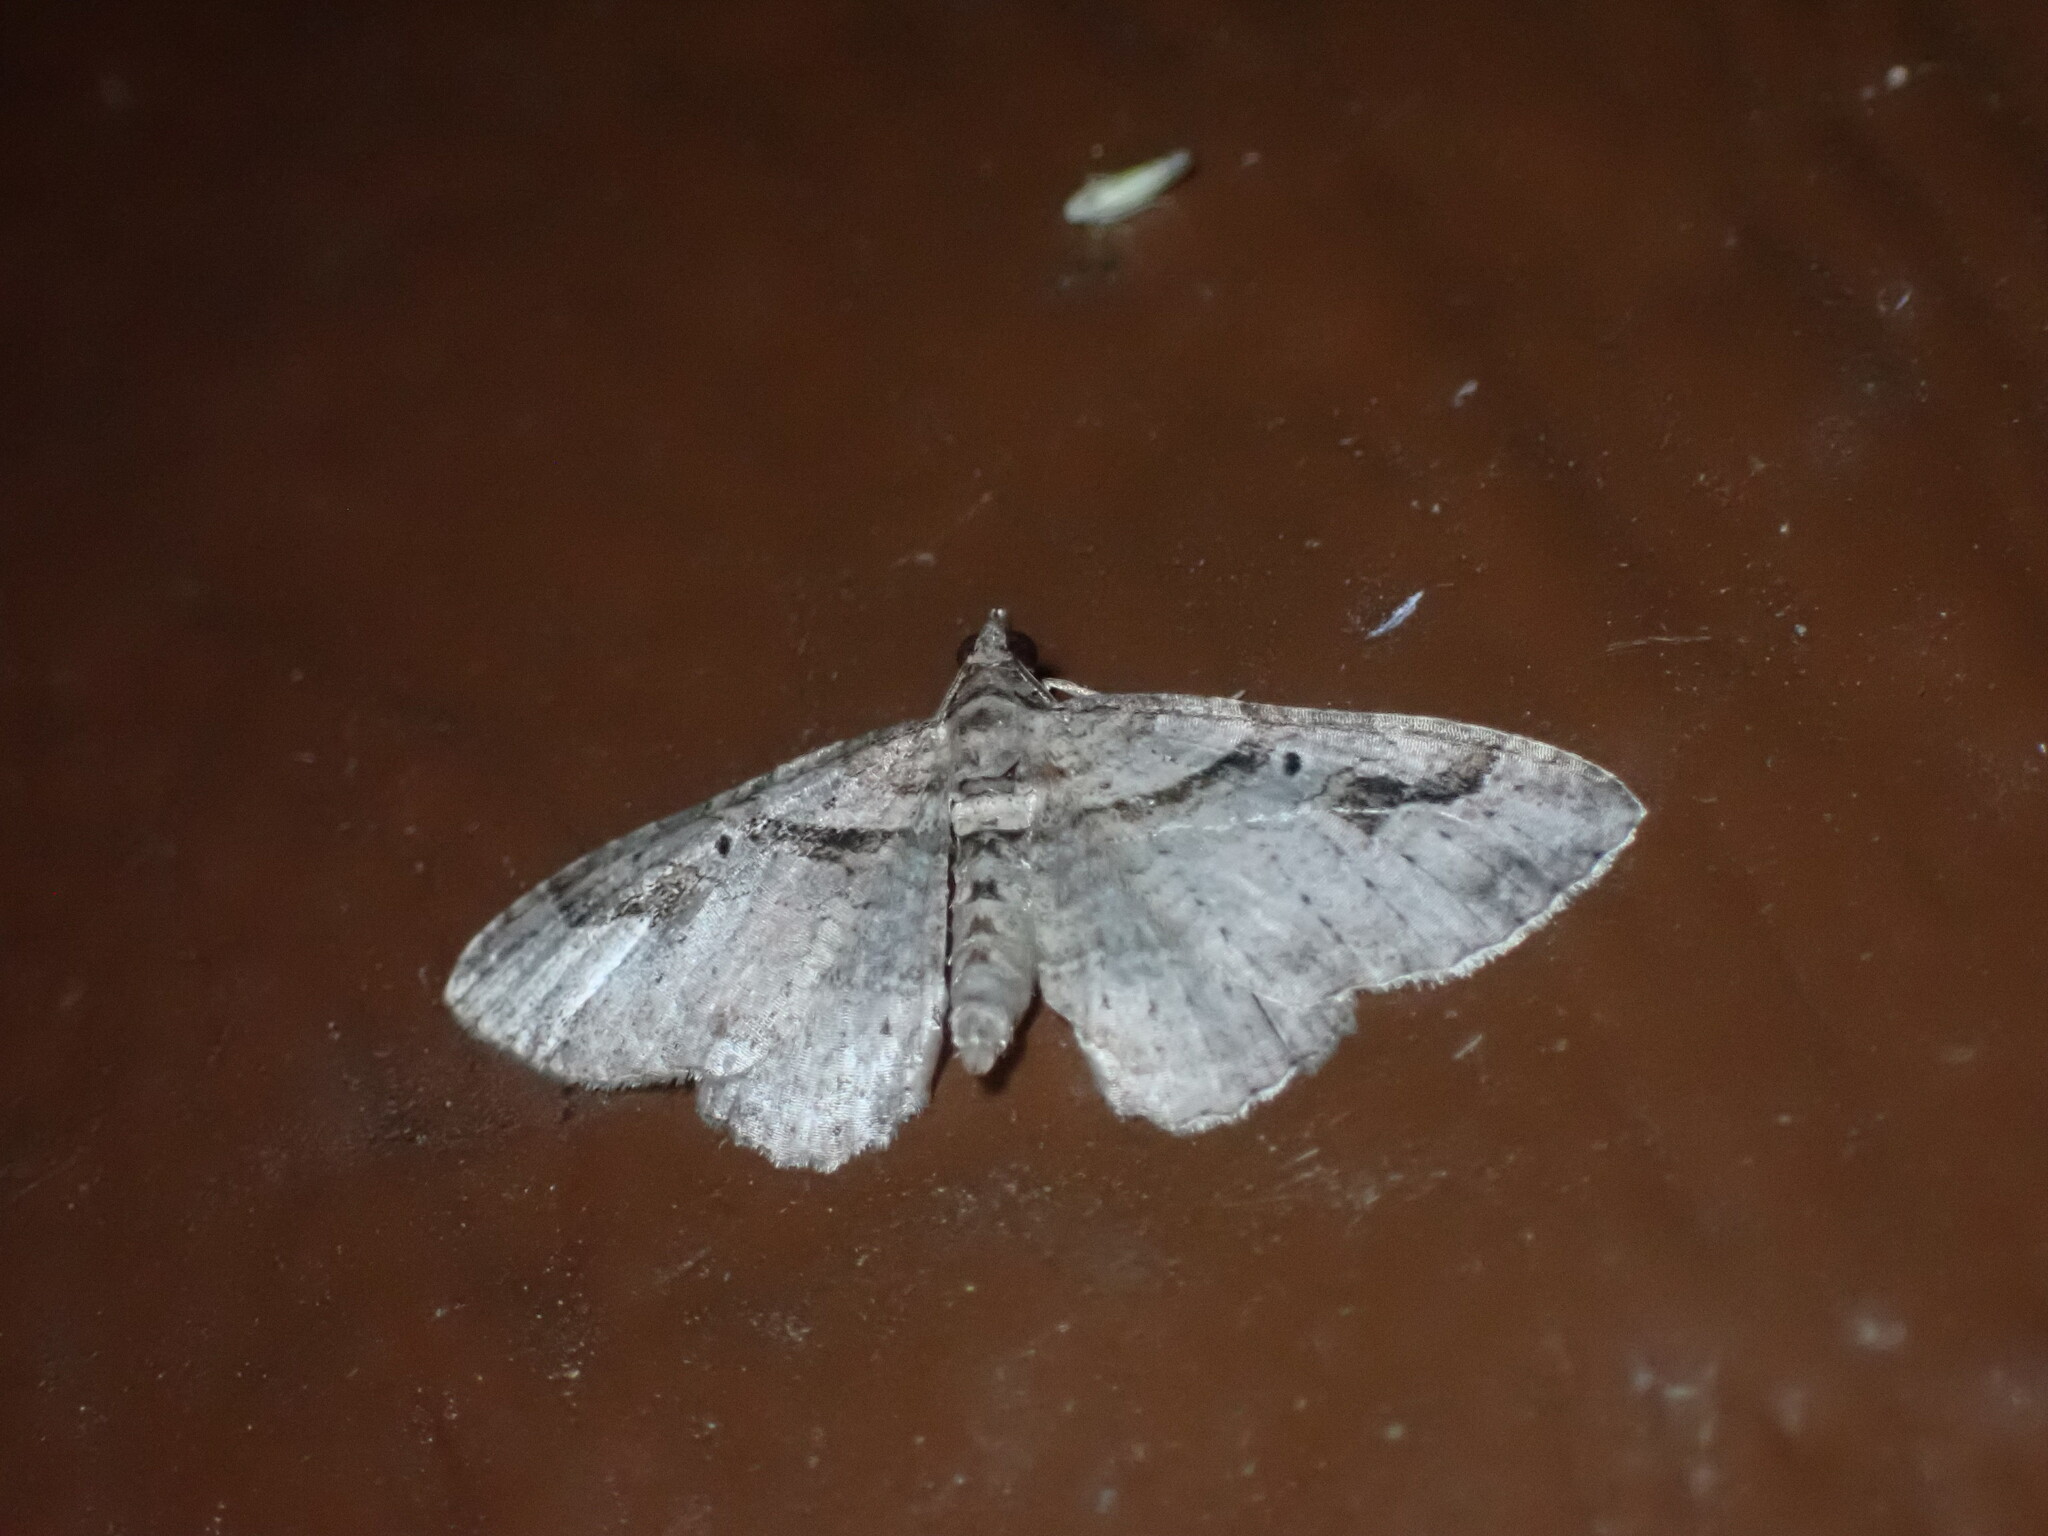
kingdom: Animalia
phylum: Arthropoda
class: Insecta
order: Lepidoptera
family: Geometridae
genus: Costaconvexa
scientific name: Costaconvexa centrostrigaria
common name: Bent-line carpet
